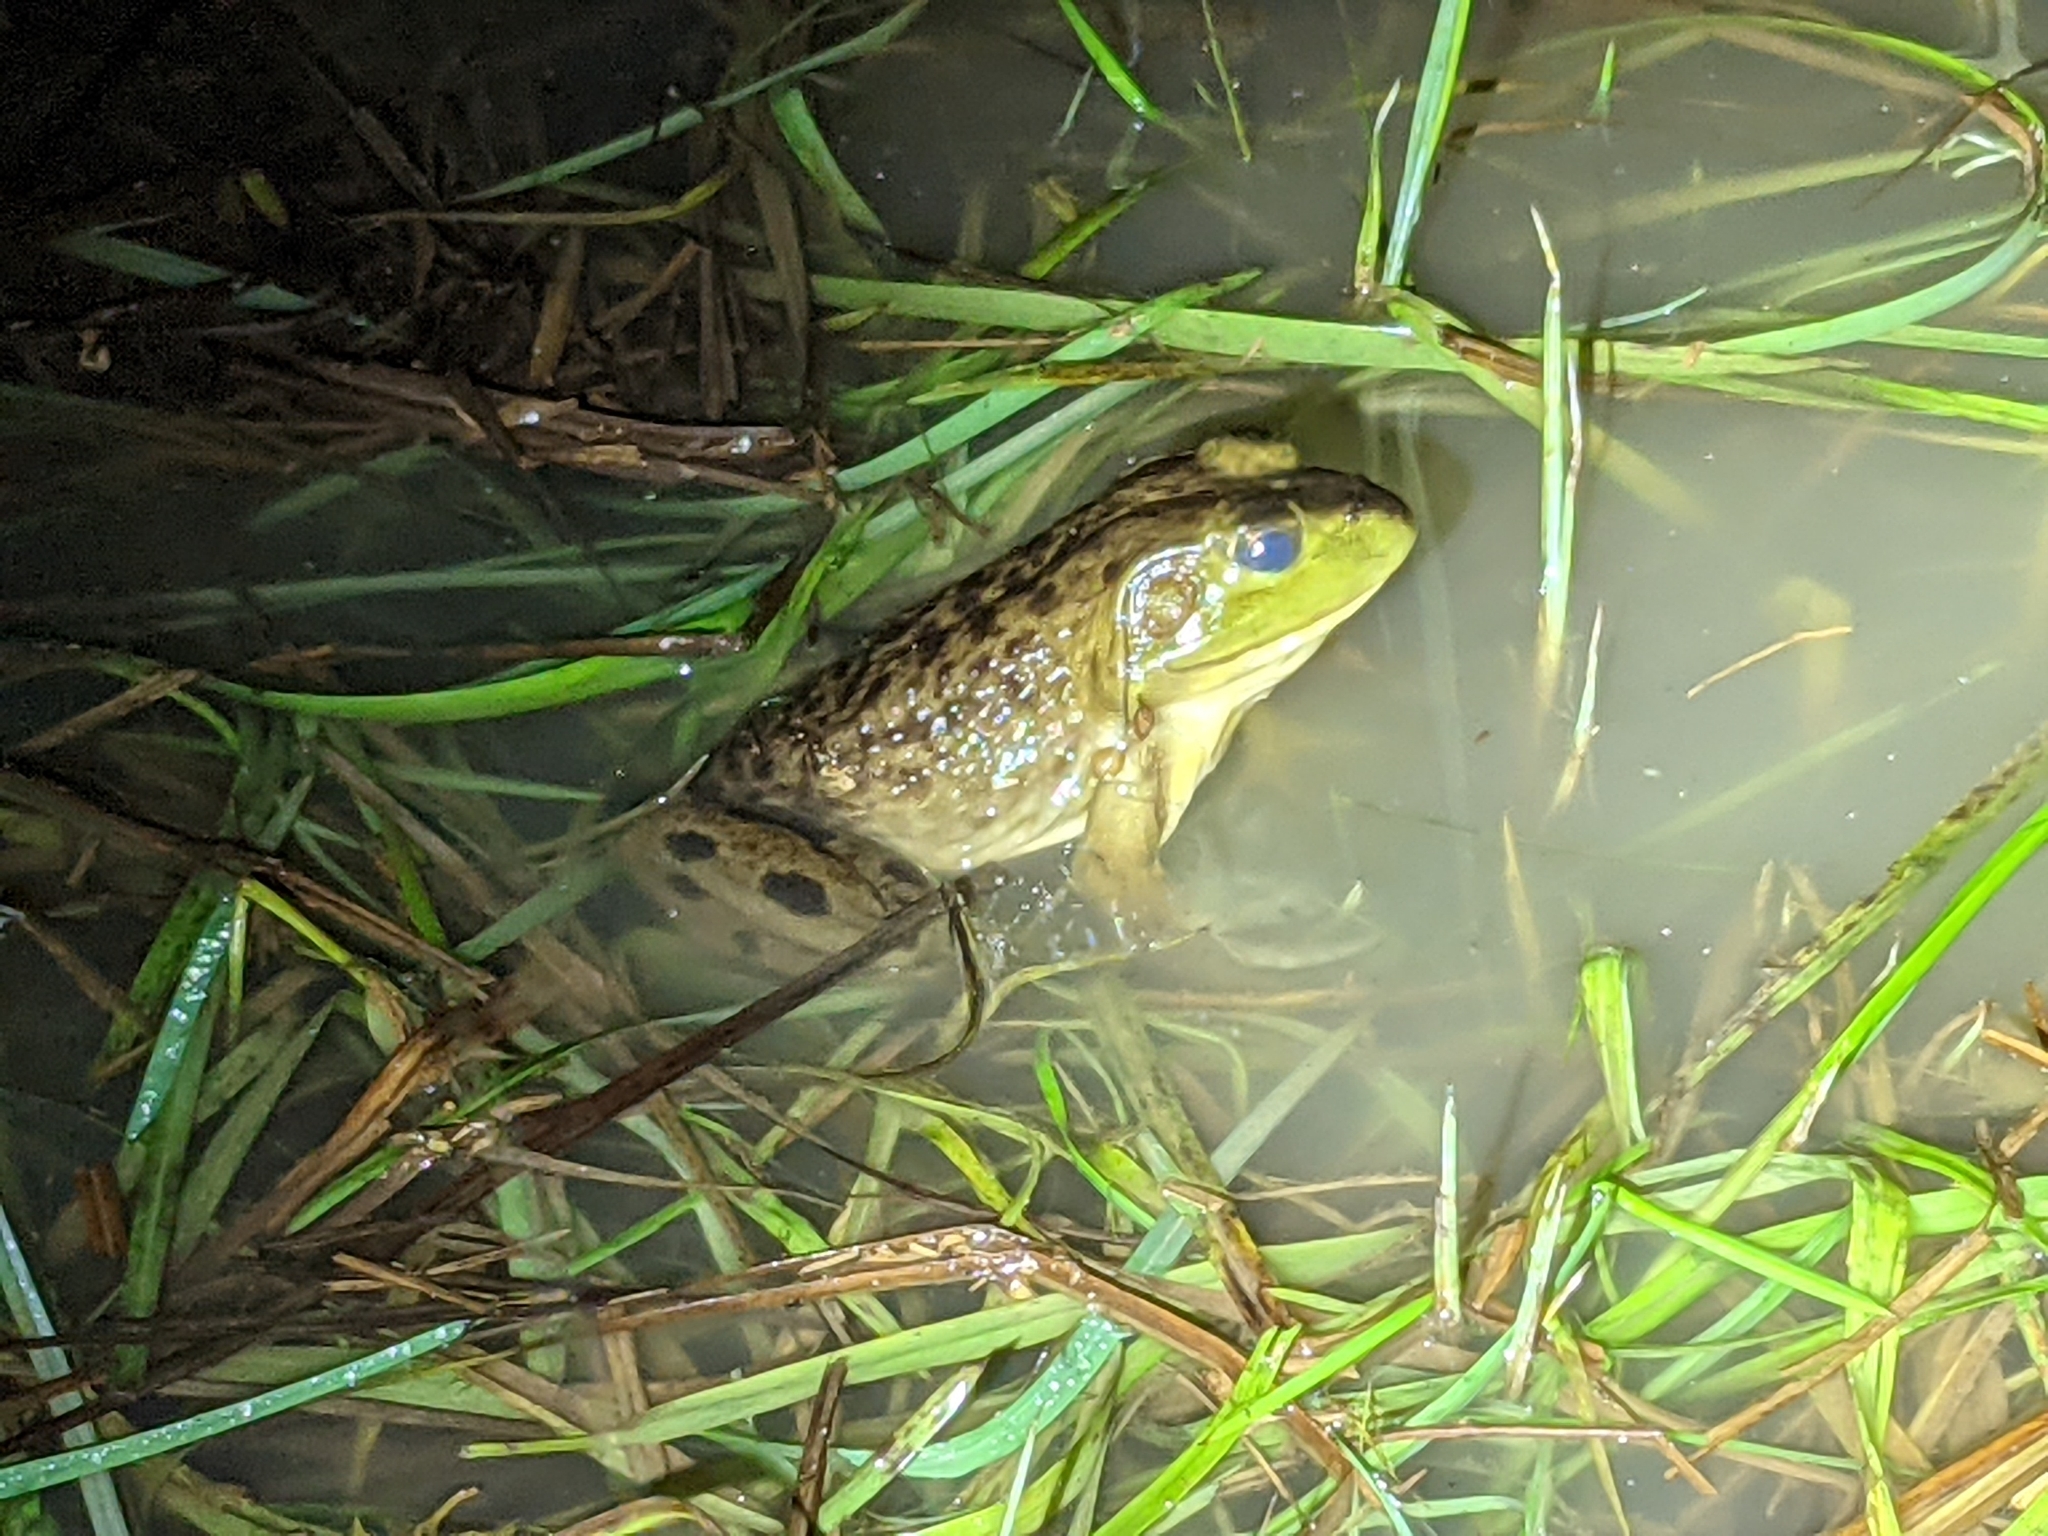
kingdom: Animalia
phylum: Chordata
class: Amphibia
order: Anura
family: Ranidae
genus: Lithobates
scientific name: Lithobates catesbeianus
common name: American bullfrog
